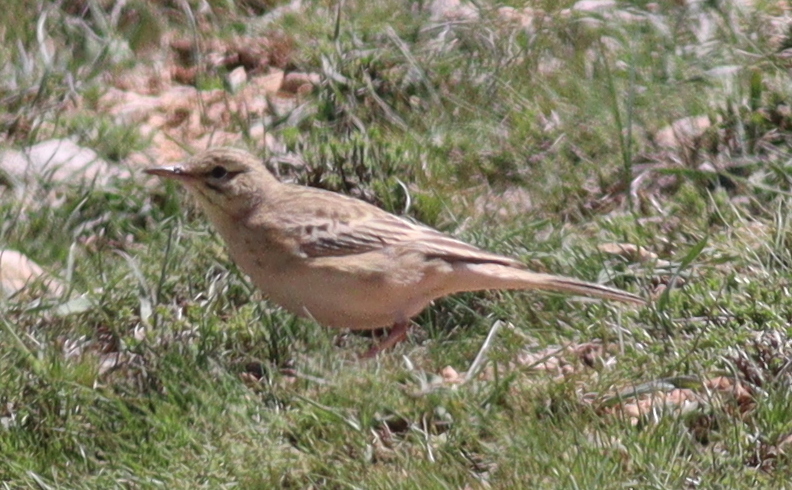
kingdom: Animalia
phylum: Chordata
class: Aves
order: Passeriformes
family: Motacillidae
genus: Anthus
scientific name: Anthus campestris
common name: Tawny pipit
